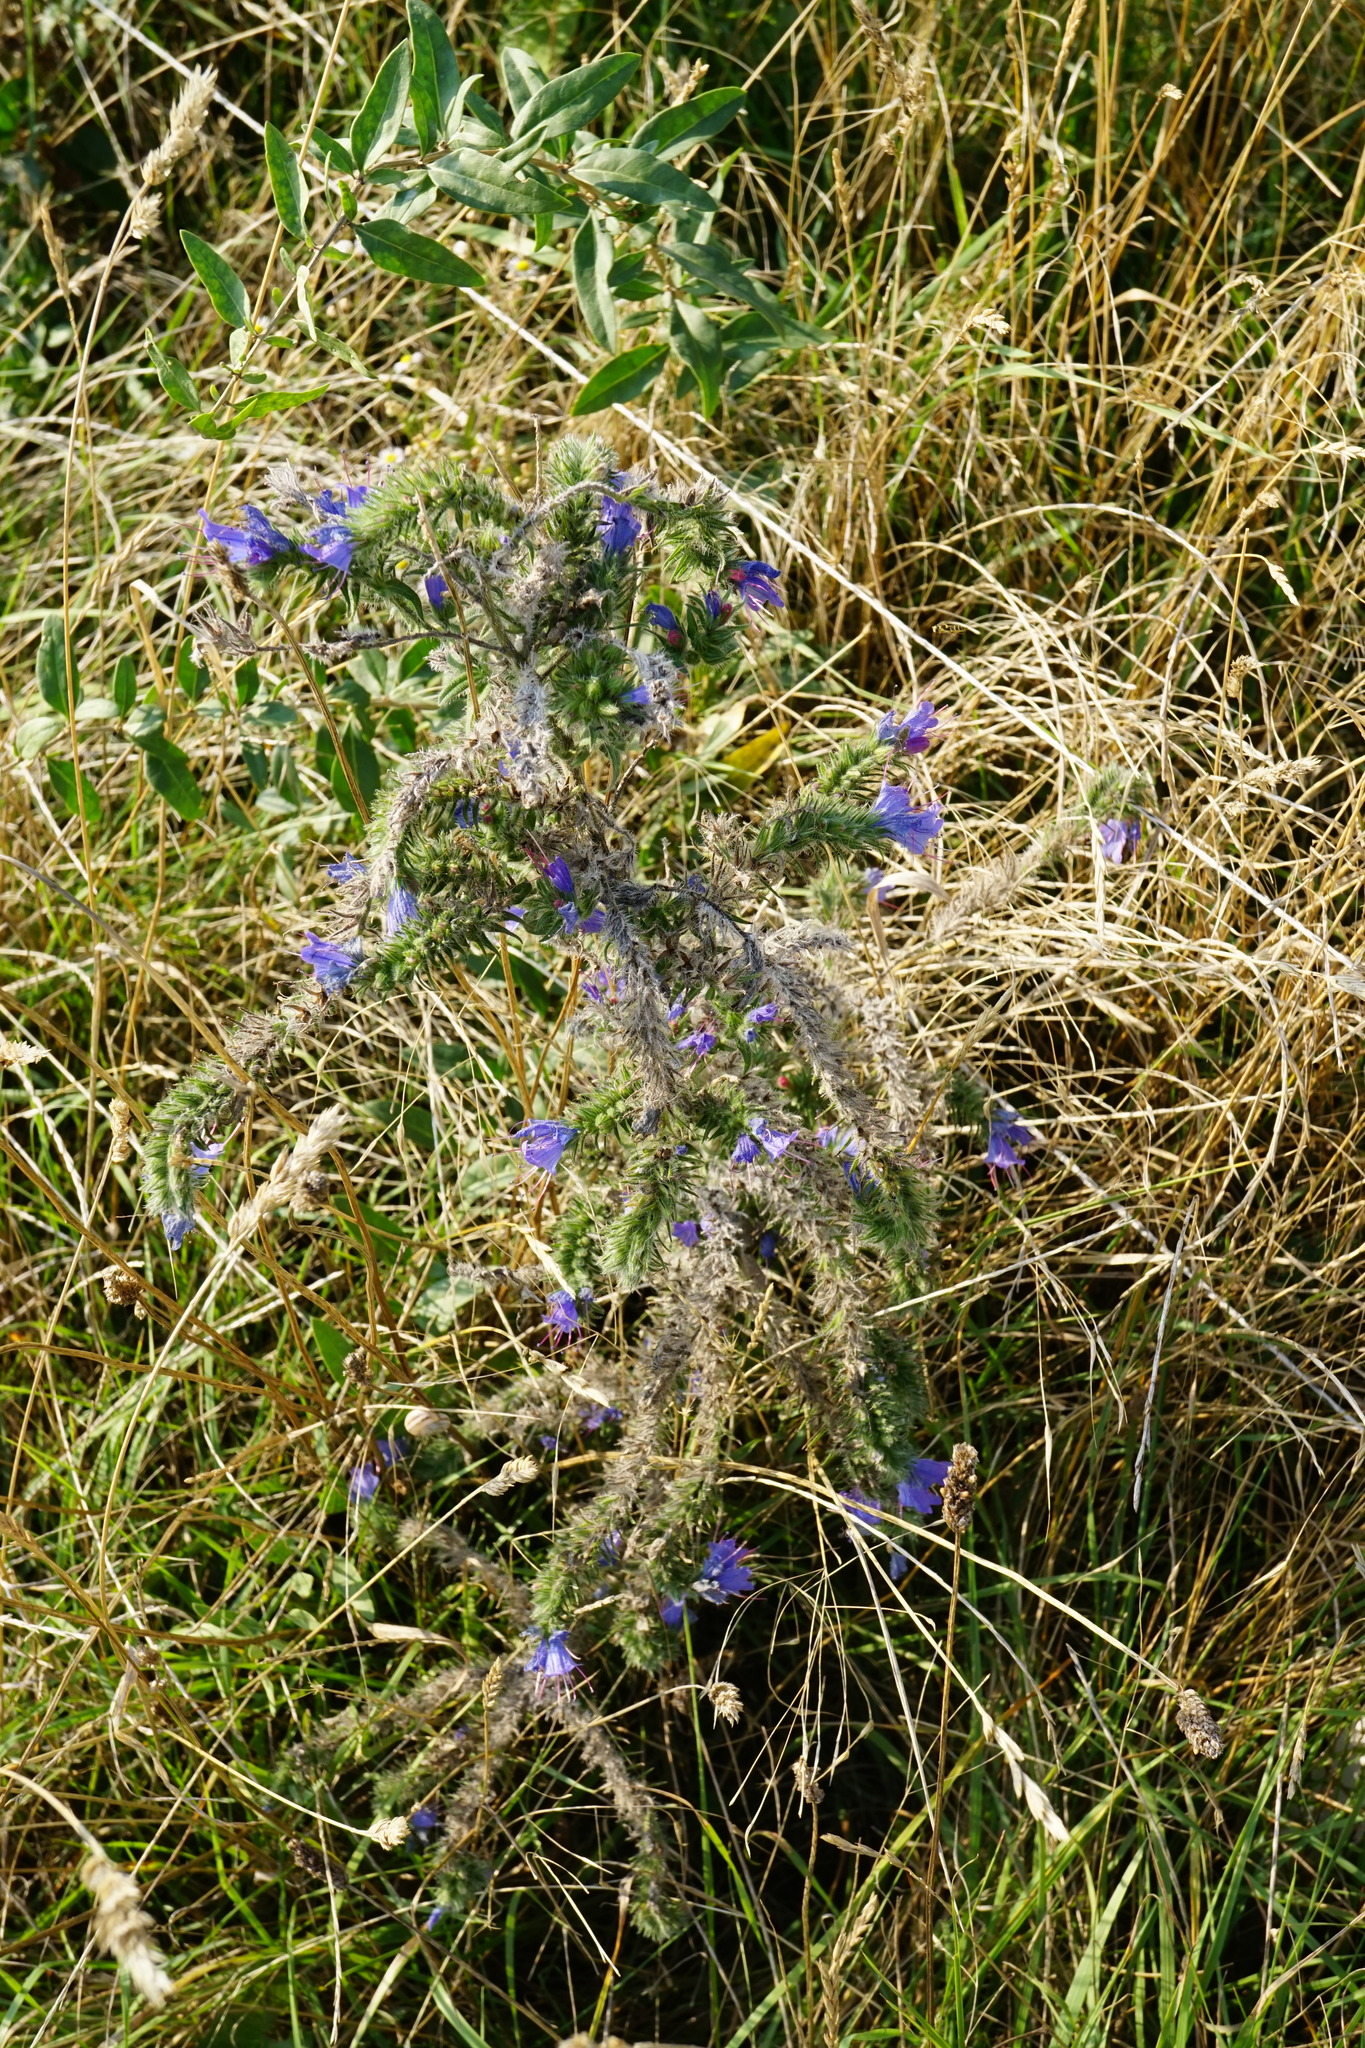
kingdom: Plantae
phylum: Tracheophyta
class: Magnoliopsida
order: Boraginales
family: Boraginaceae
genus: Echium
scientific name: Echium vulgare
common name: Common viper's bugloss
